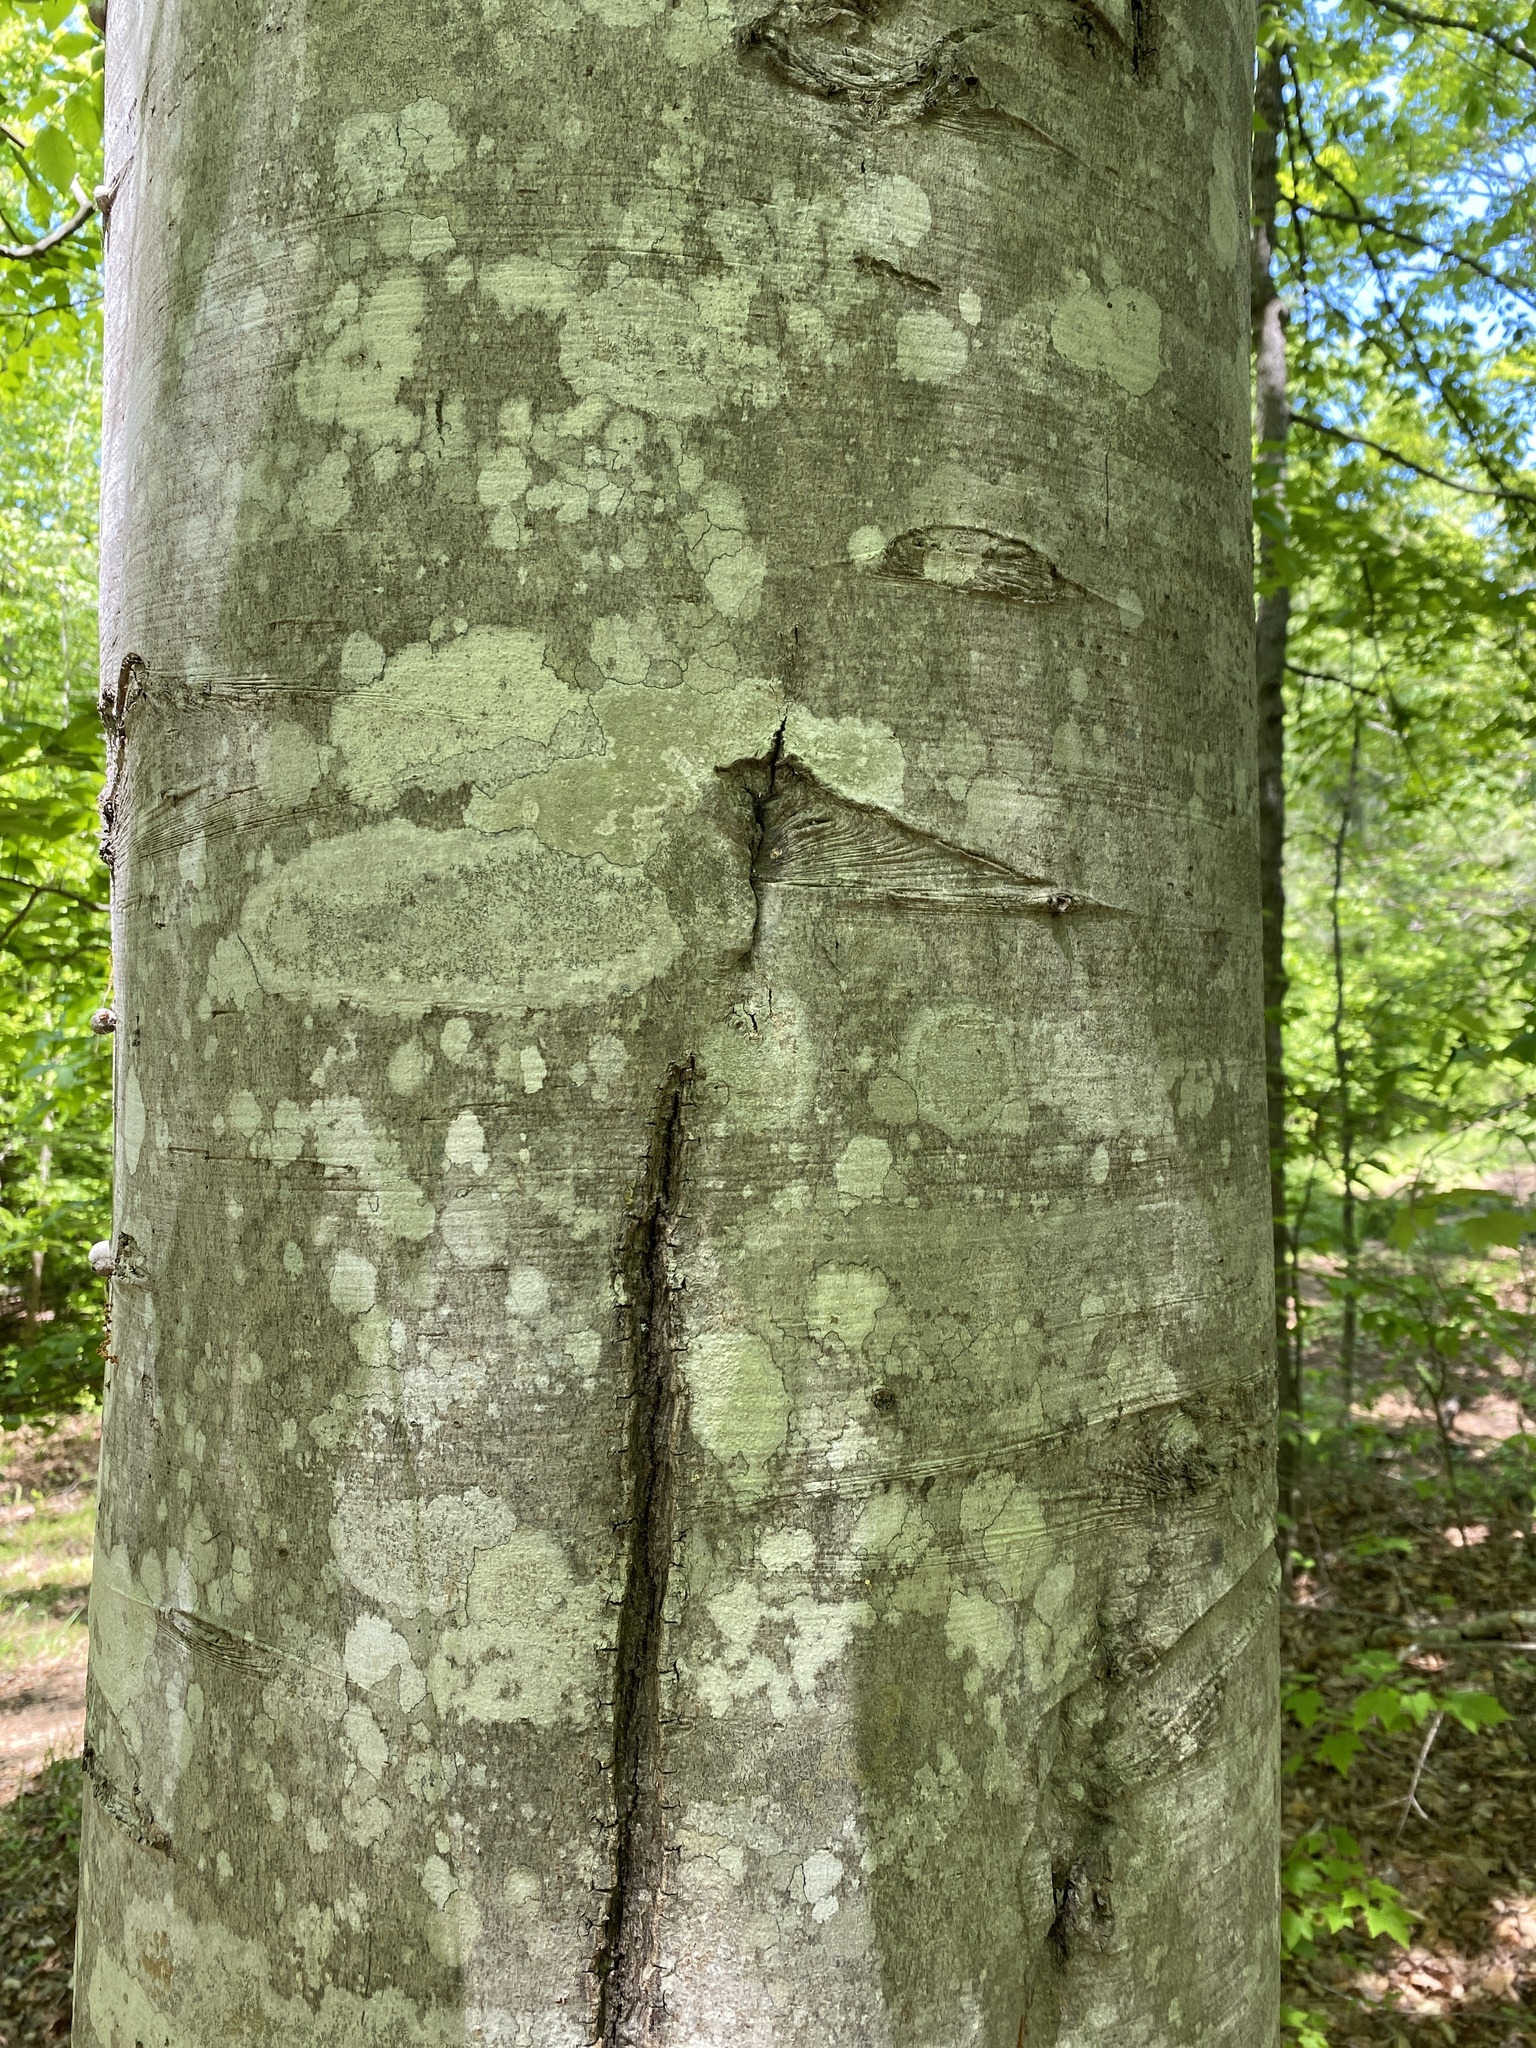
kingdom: Plantae
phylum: Tracheophyta
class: Magnoliopsida
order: Fagales
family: Fagaceae
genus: Fagus
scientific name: Fagus grandifolia
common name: American beech
